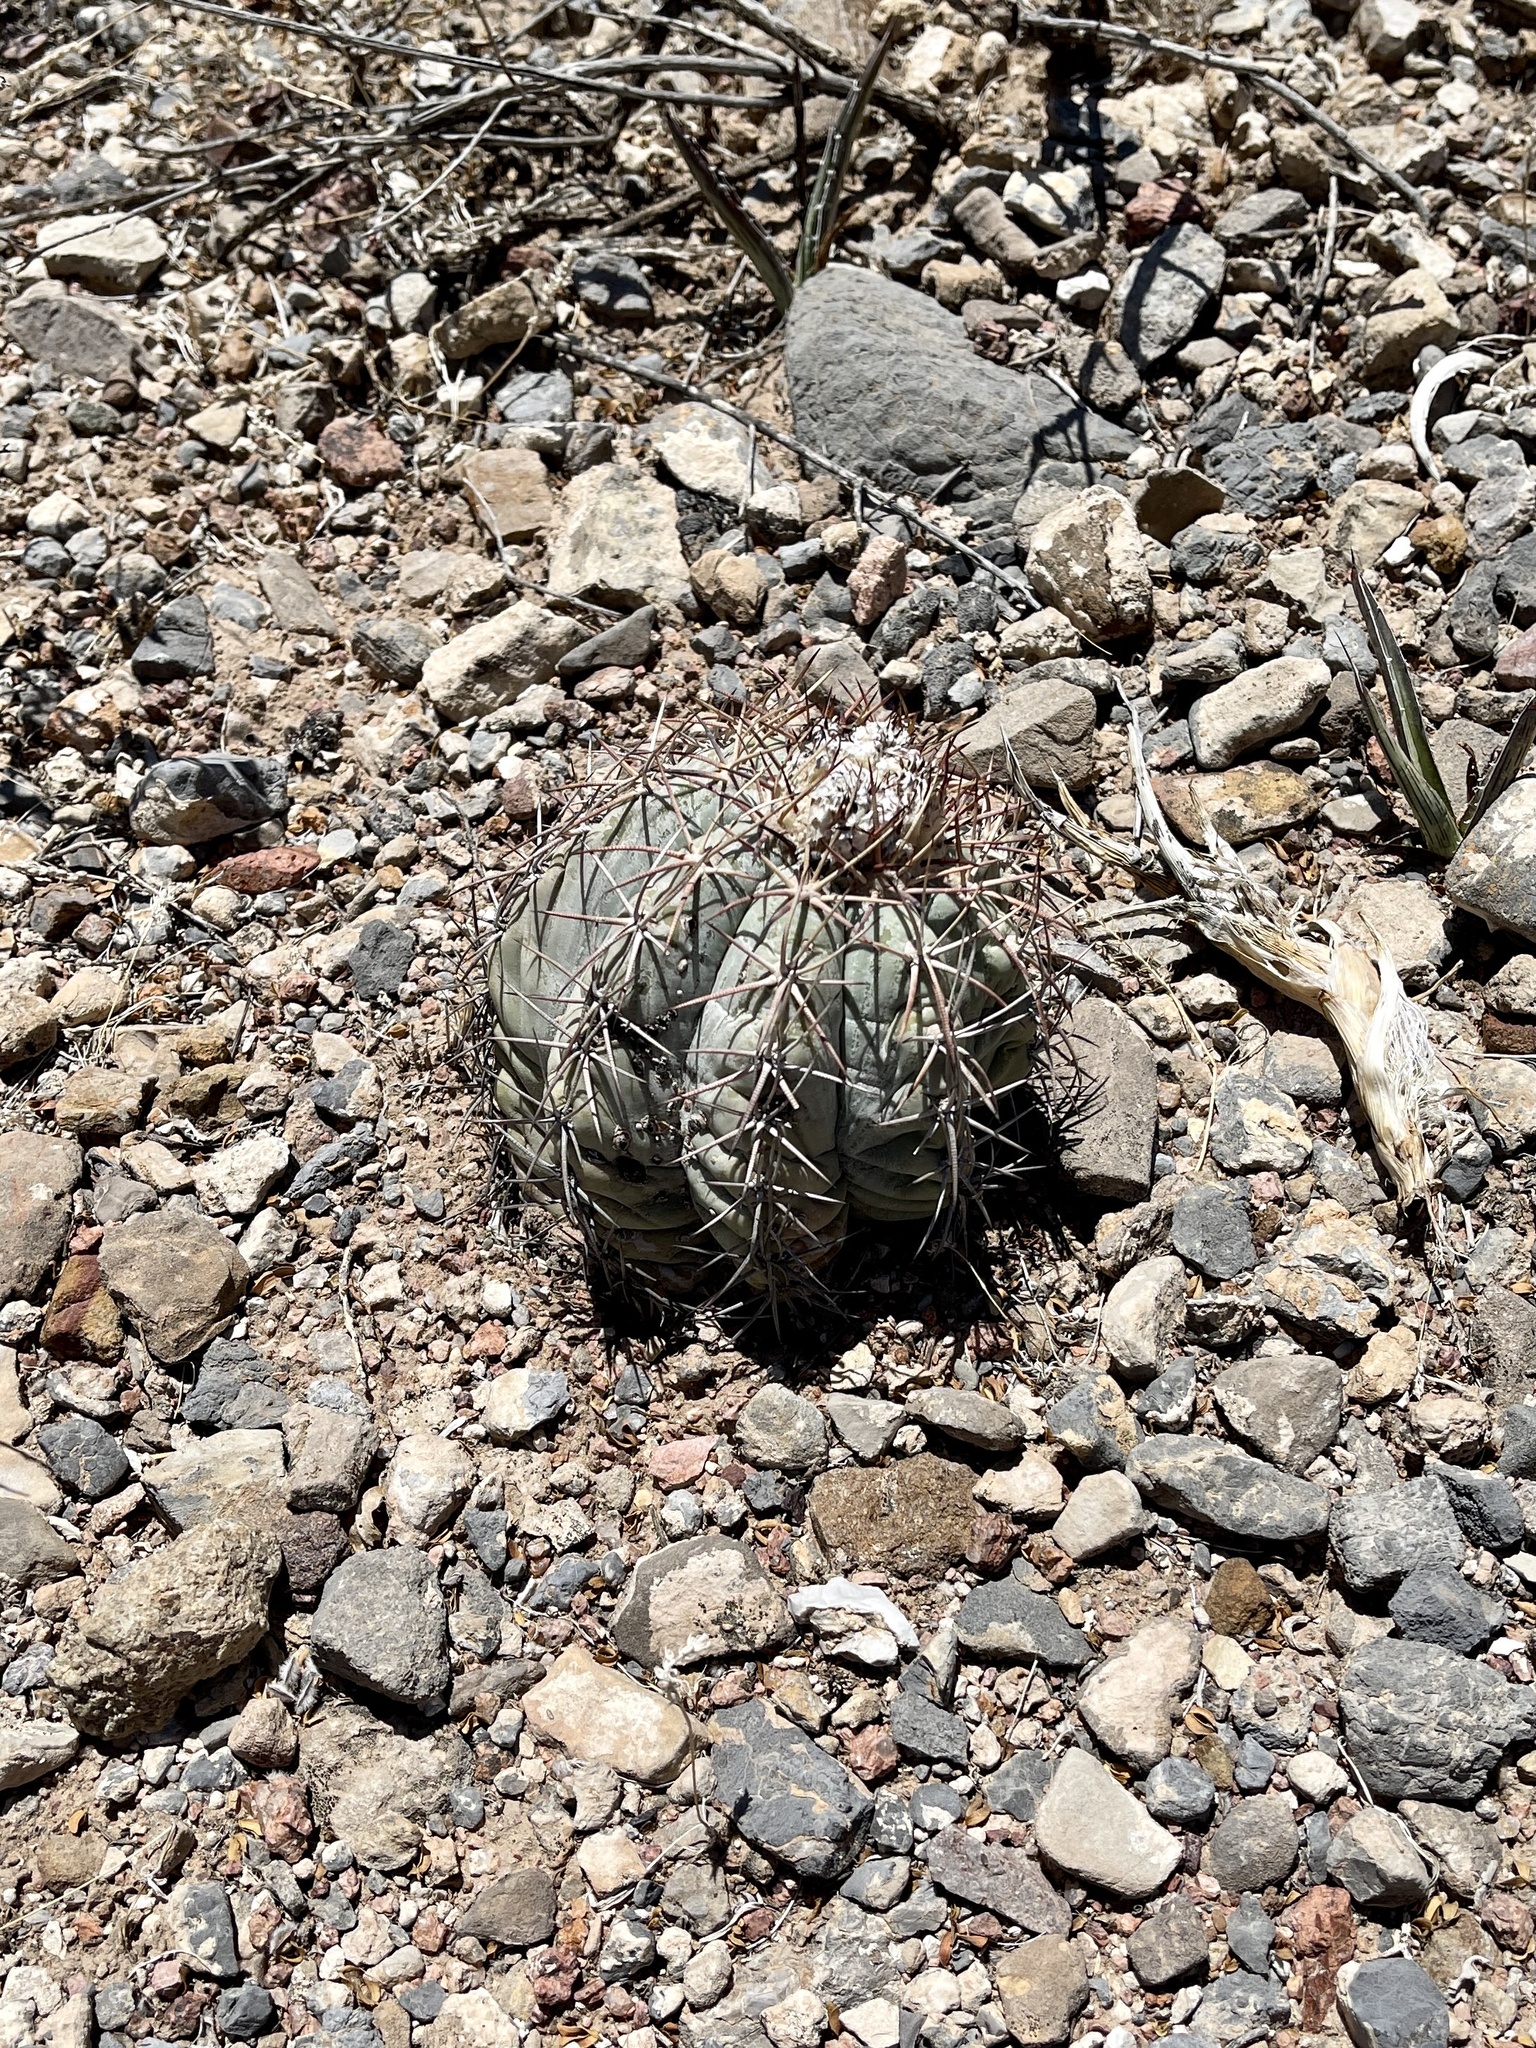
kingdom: Plantae
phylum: Tracheophyta
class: Magnoliopsida
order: Caryophyllales
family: Cactaceae
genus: Echinocactus
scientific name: Echinocactus horizonthalonius
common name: Devilshead
